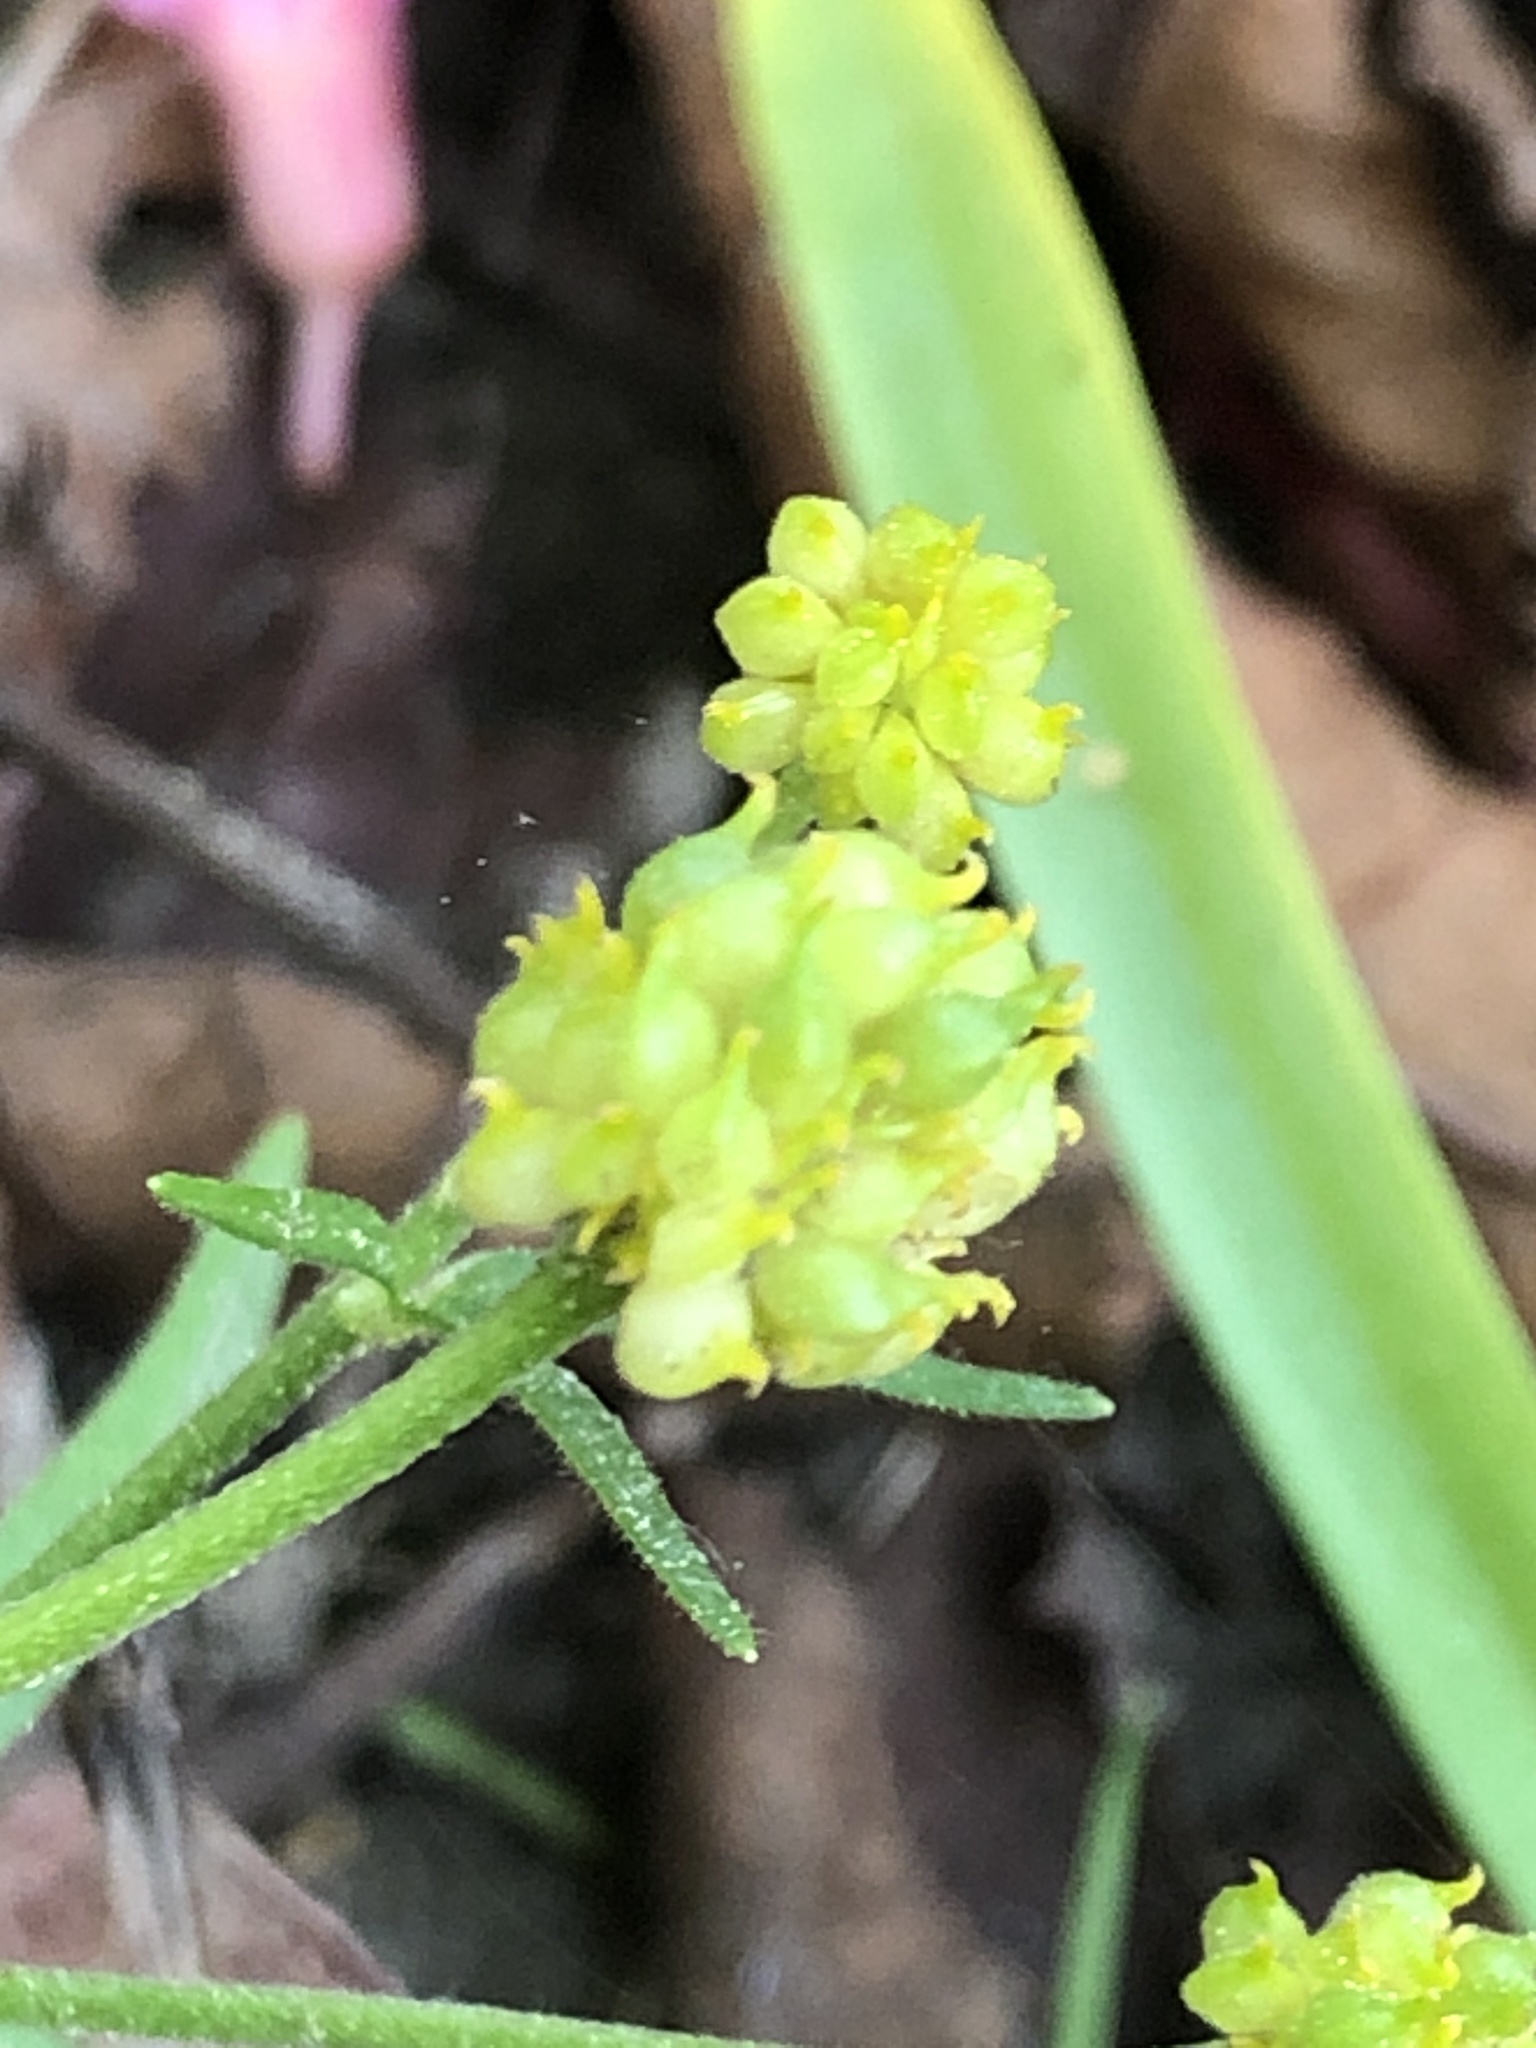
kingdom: Plantae
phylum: Tracheophyta
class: Magnoliopsida
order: Ranunculales
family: Ranunculaceae
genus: Ranunculus
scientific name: Ranunculus auricomus
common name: Goldilocks buttercup
